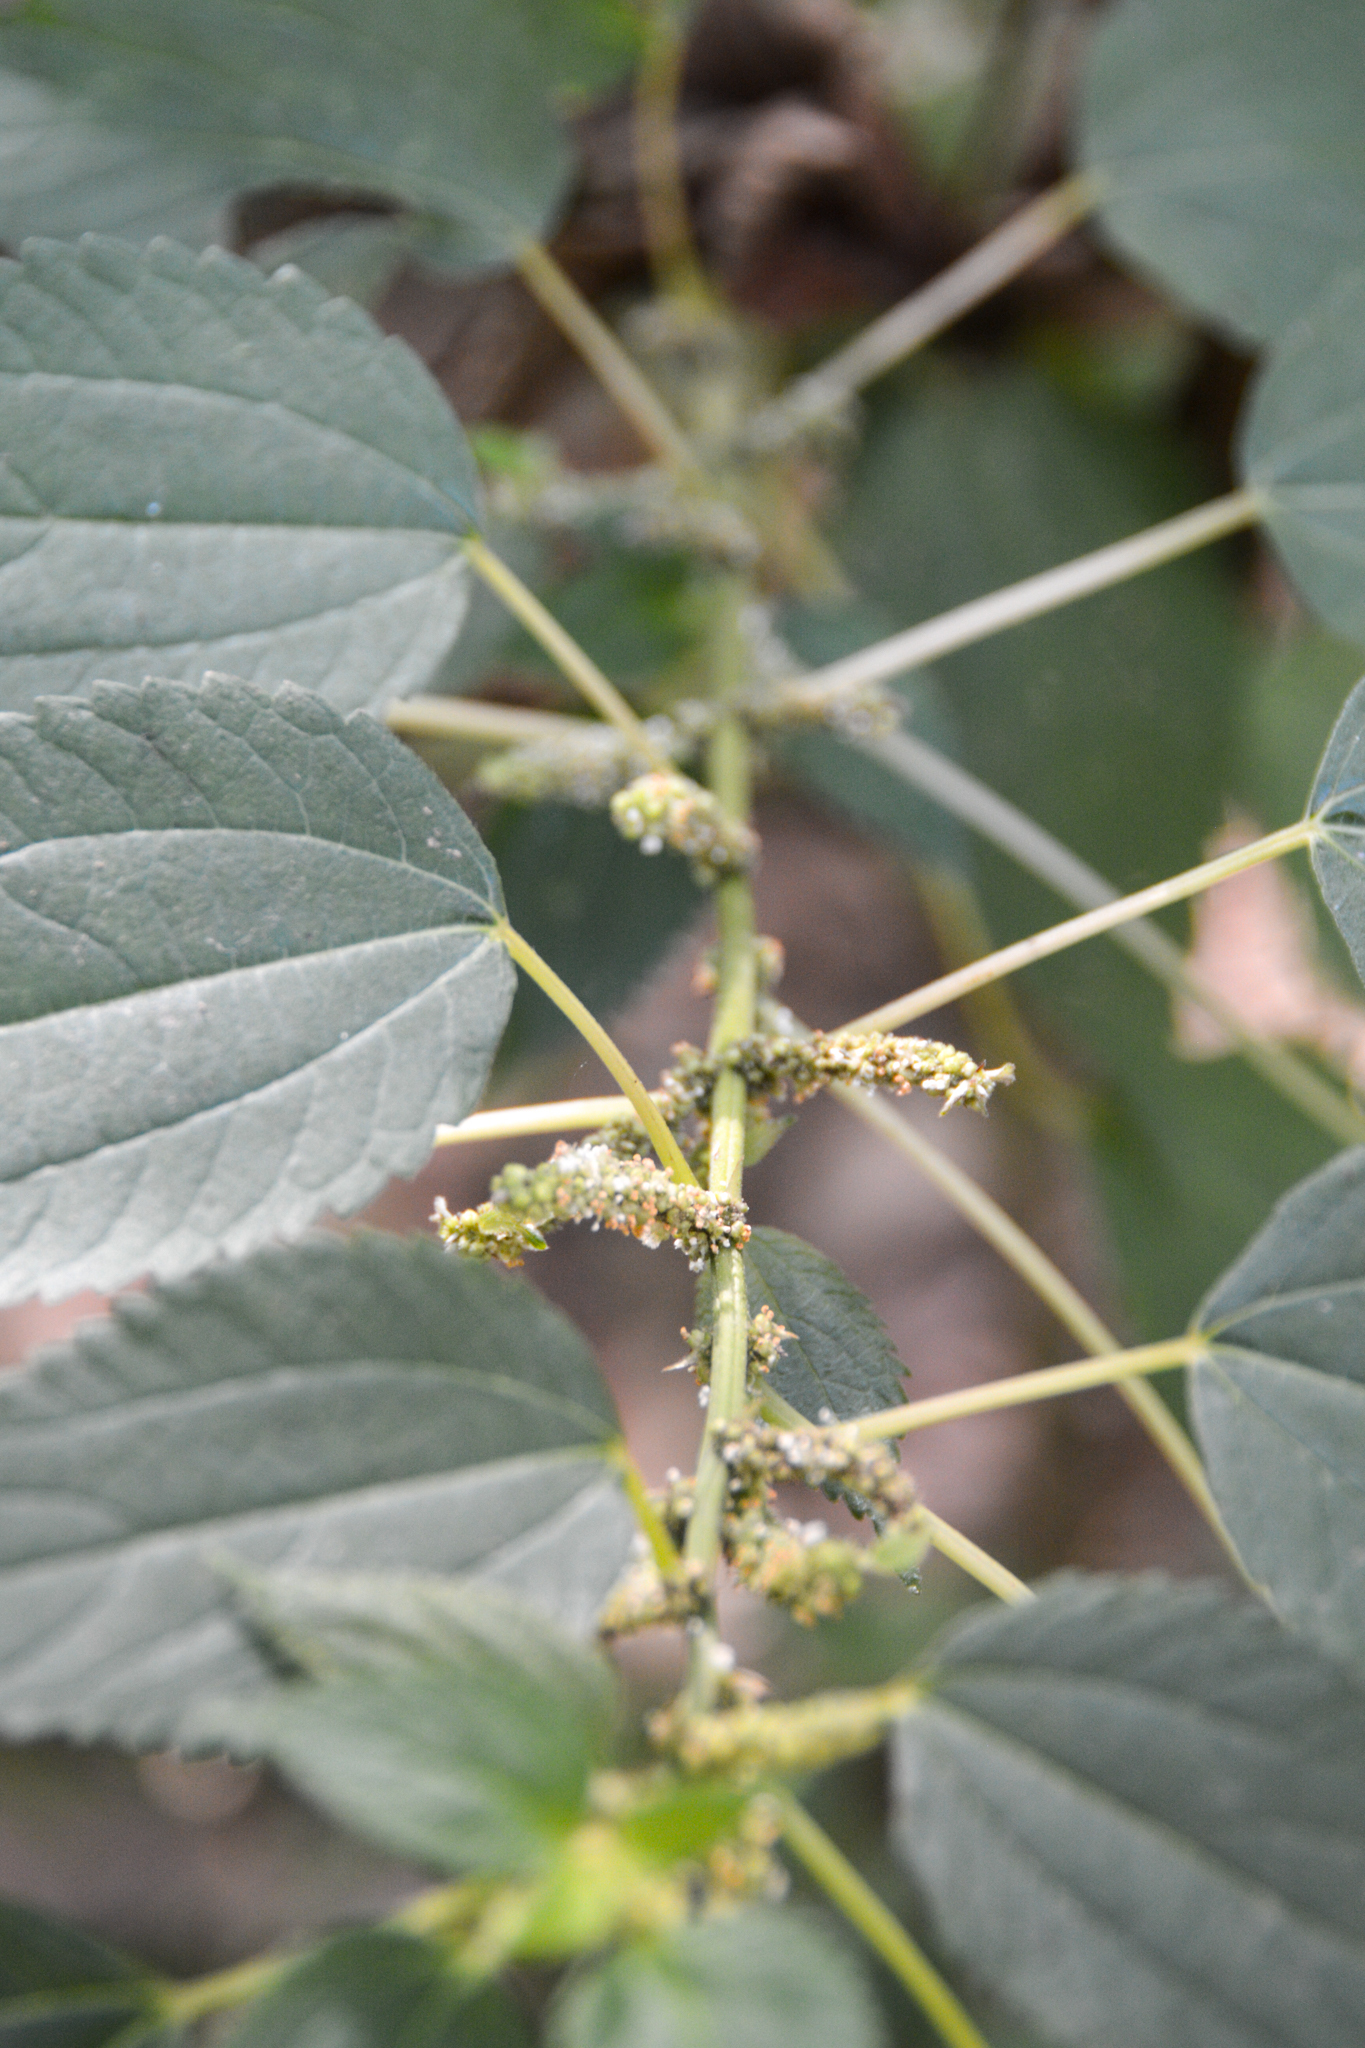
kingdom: Plantae
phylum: Tracheophyta
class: Magnoliopsida
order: Rosales
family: Urticaceae
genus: Boehmeria
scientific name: Boehmeria cylindrica
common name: Bog-hemp
